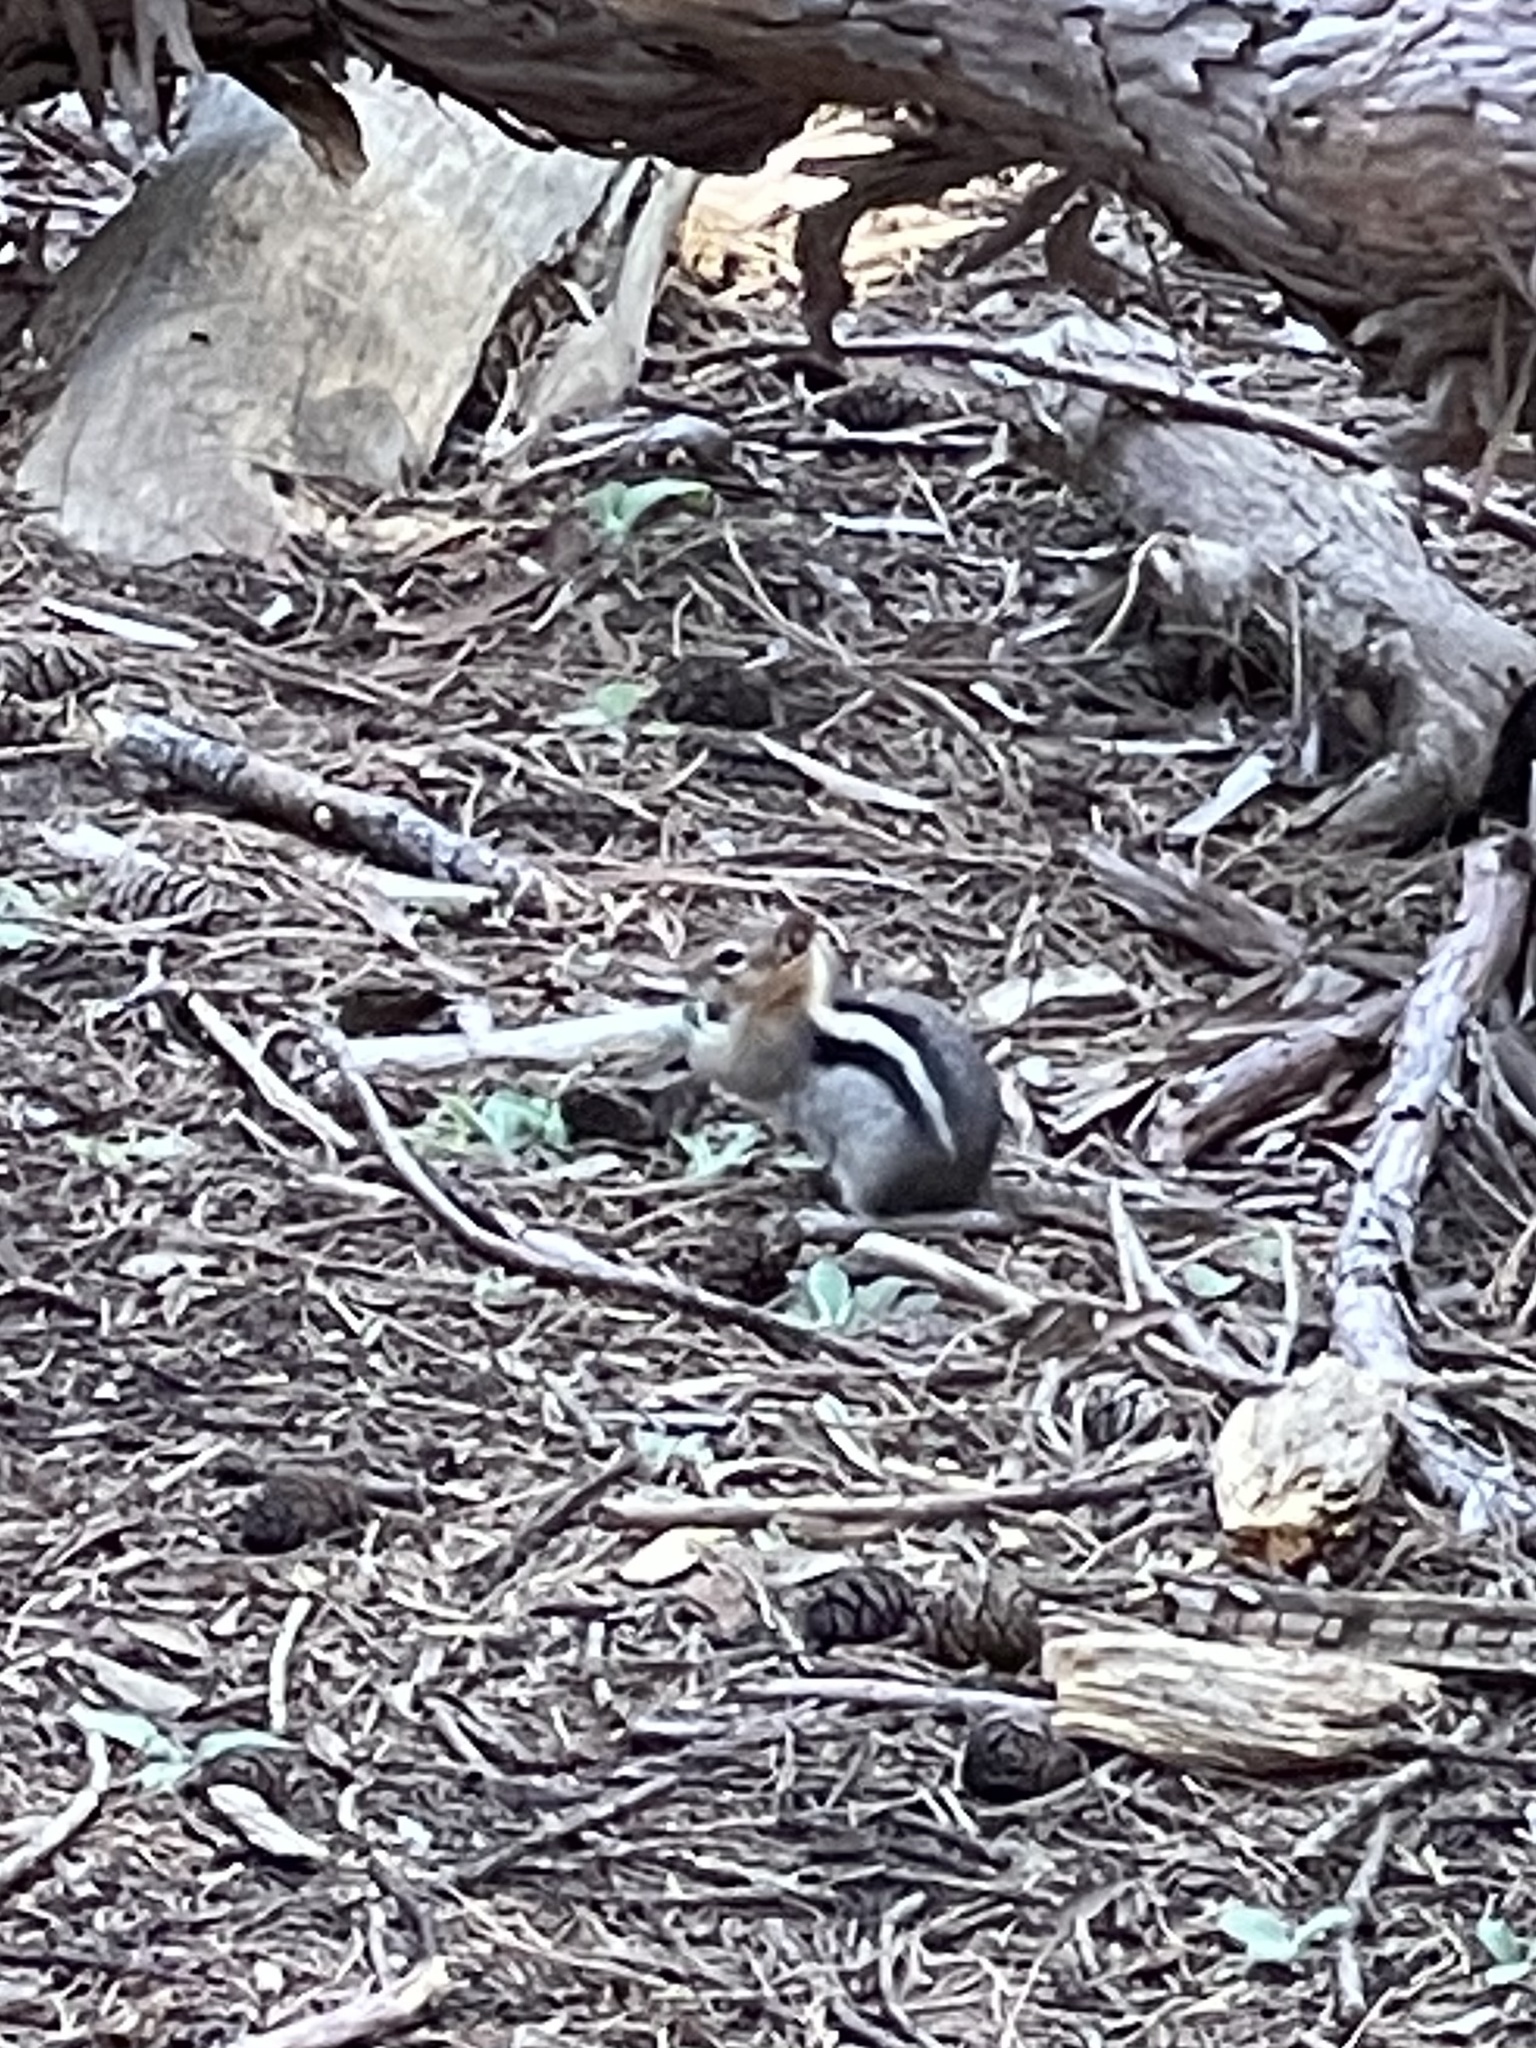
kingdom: Animalia
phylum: Chordata
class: Mammalia
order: Rodentia
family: Sciuridae
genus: Callospermophilus
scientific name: Callospermophilus lateralis
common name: Golden-mantled ground squirrel
